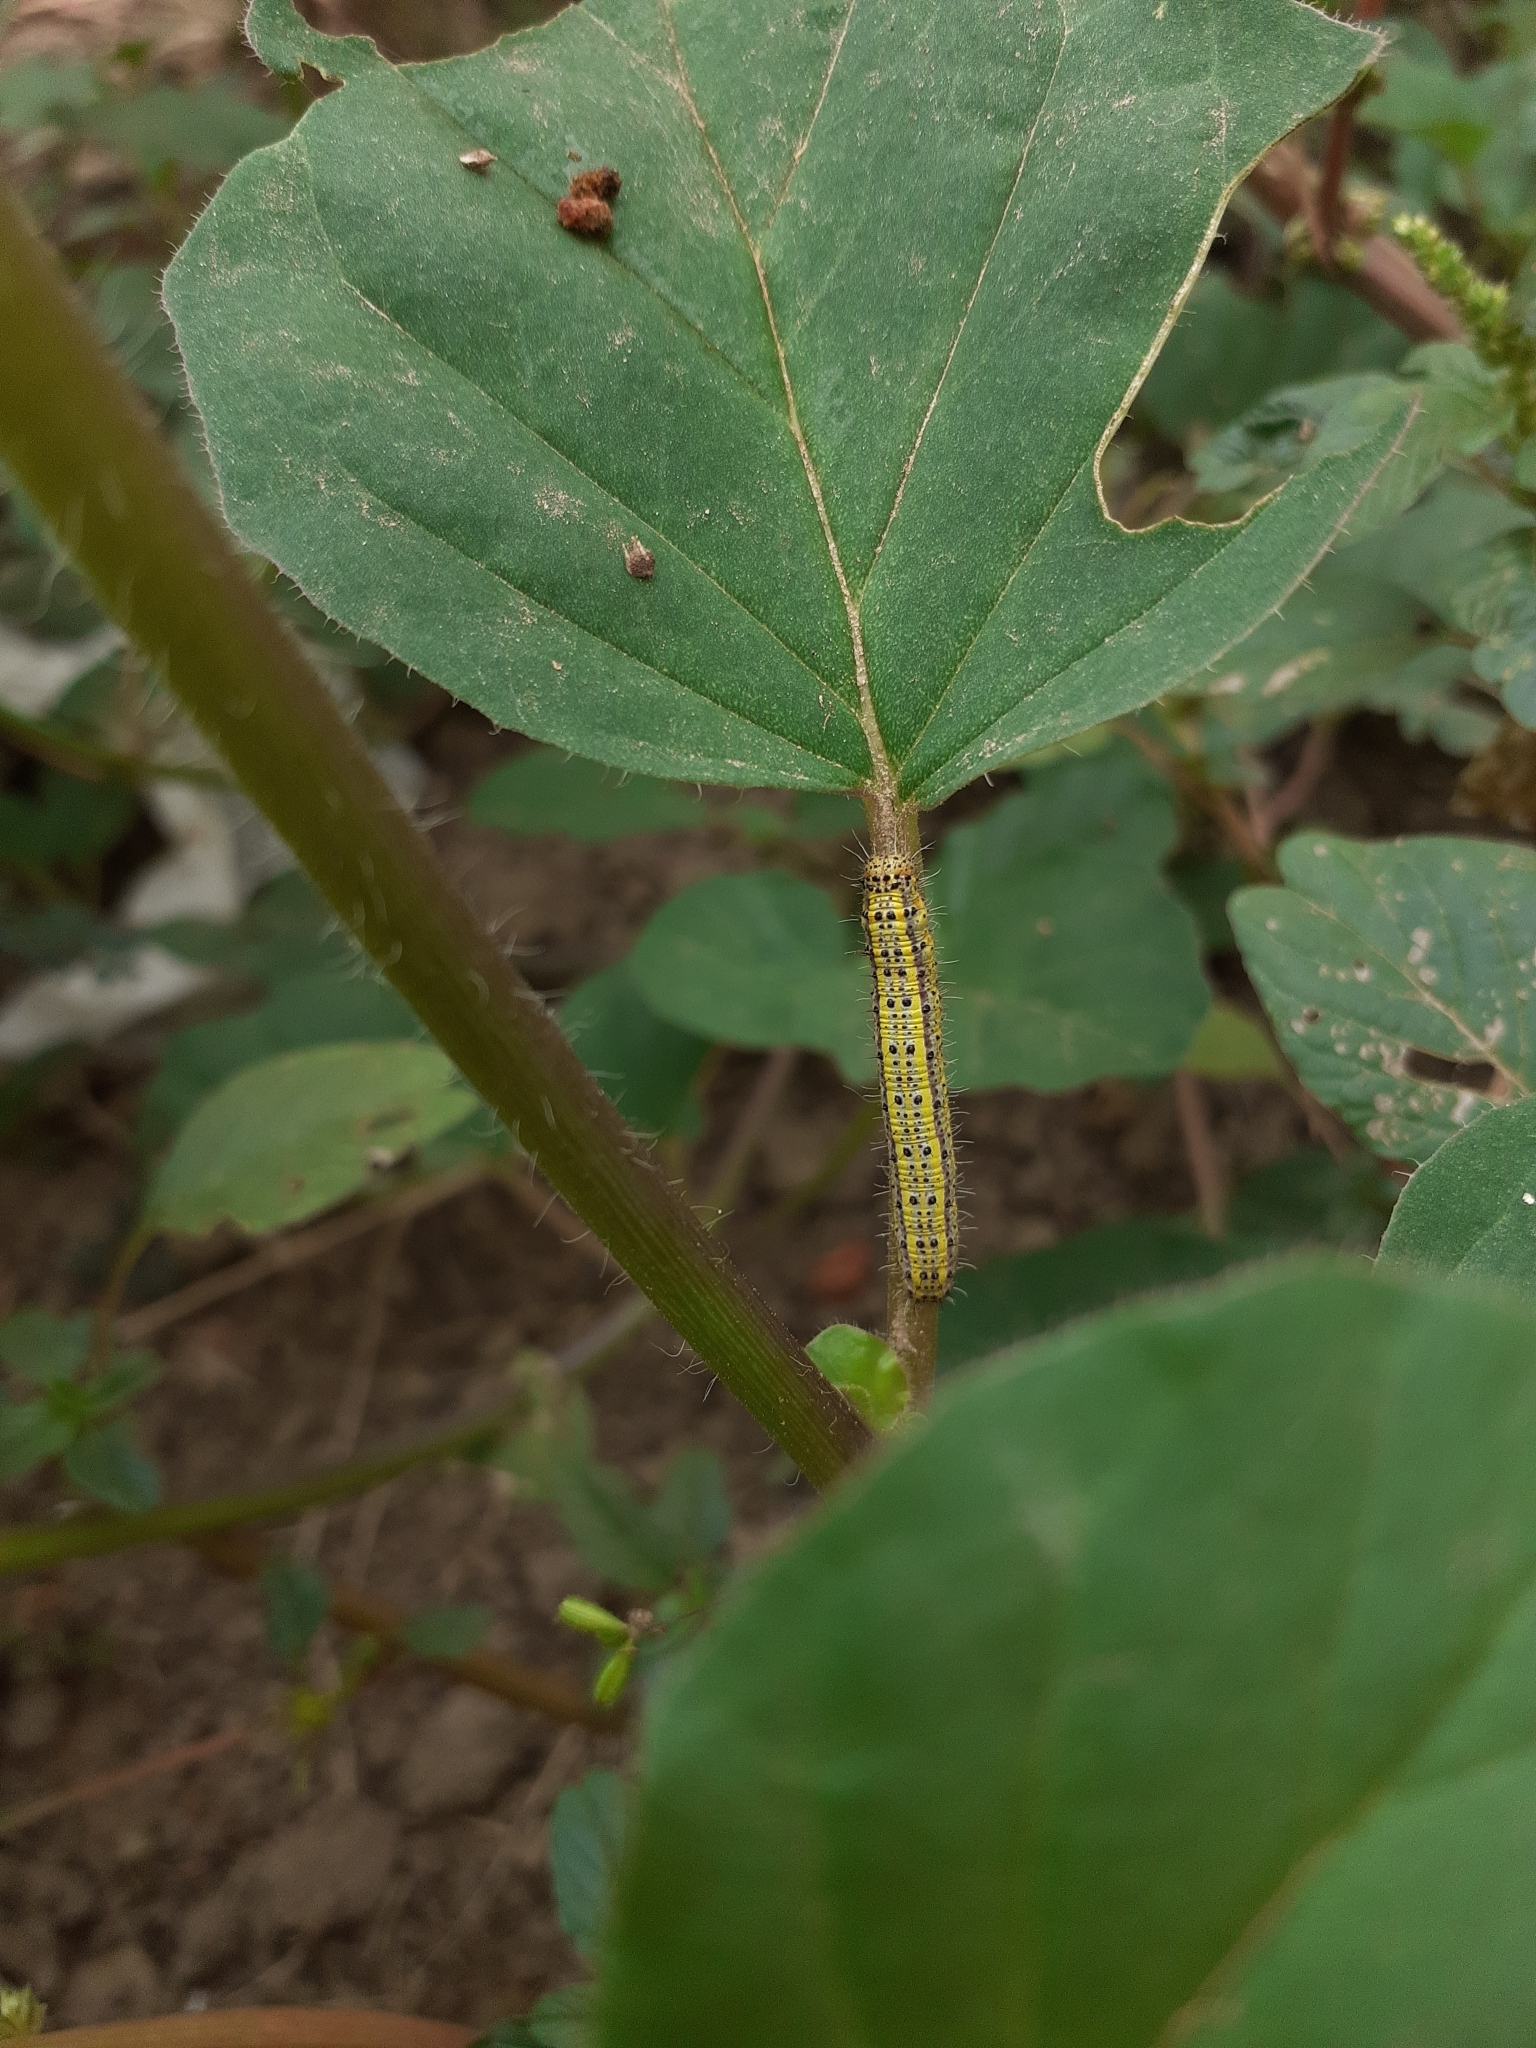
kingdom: Animalia
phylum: Arthropoda
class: Insecta
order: Lepidoptera
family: Pieridae
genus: Ascia
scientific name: Ascia monuste
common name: Great southern white
